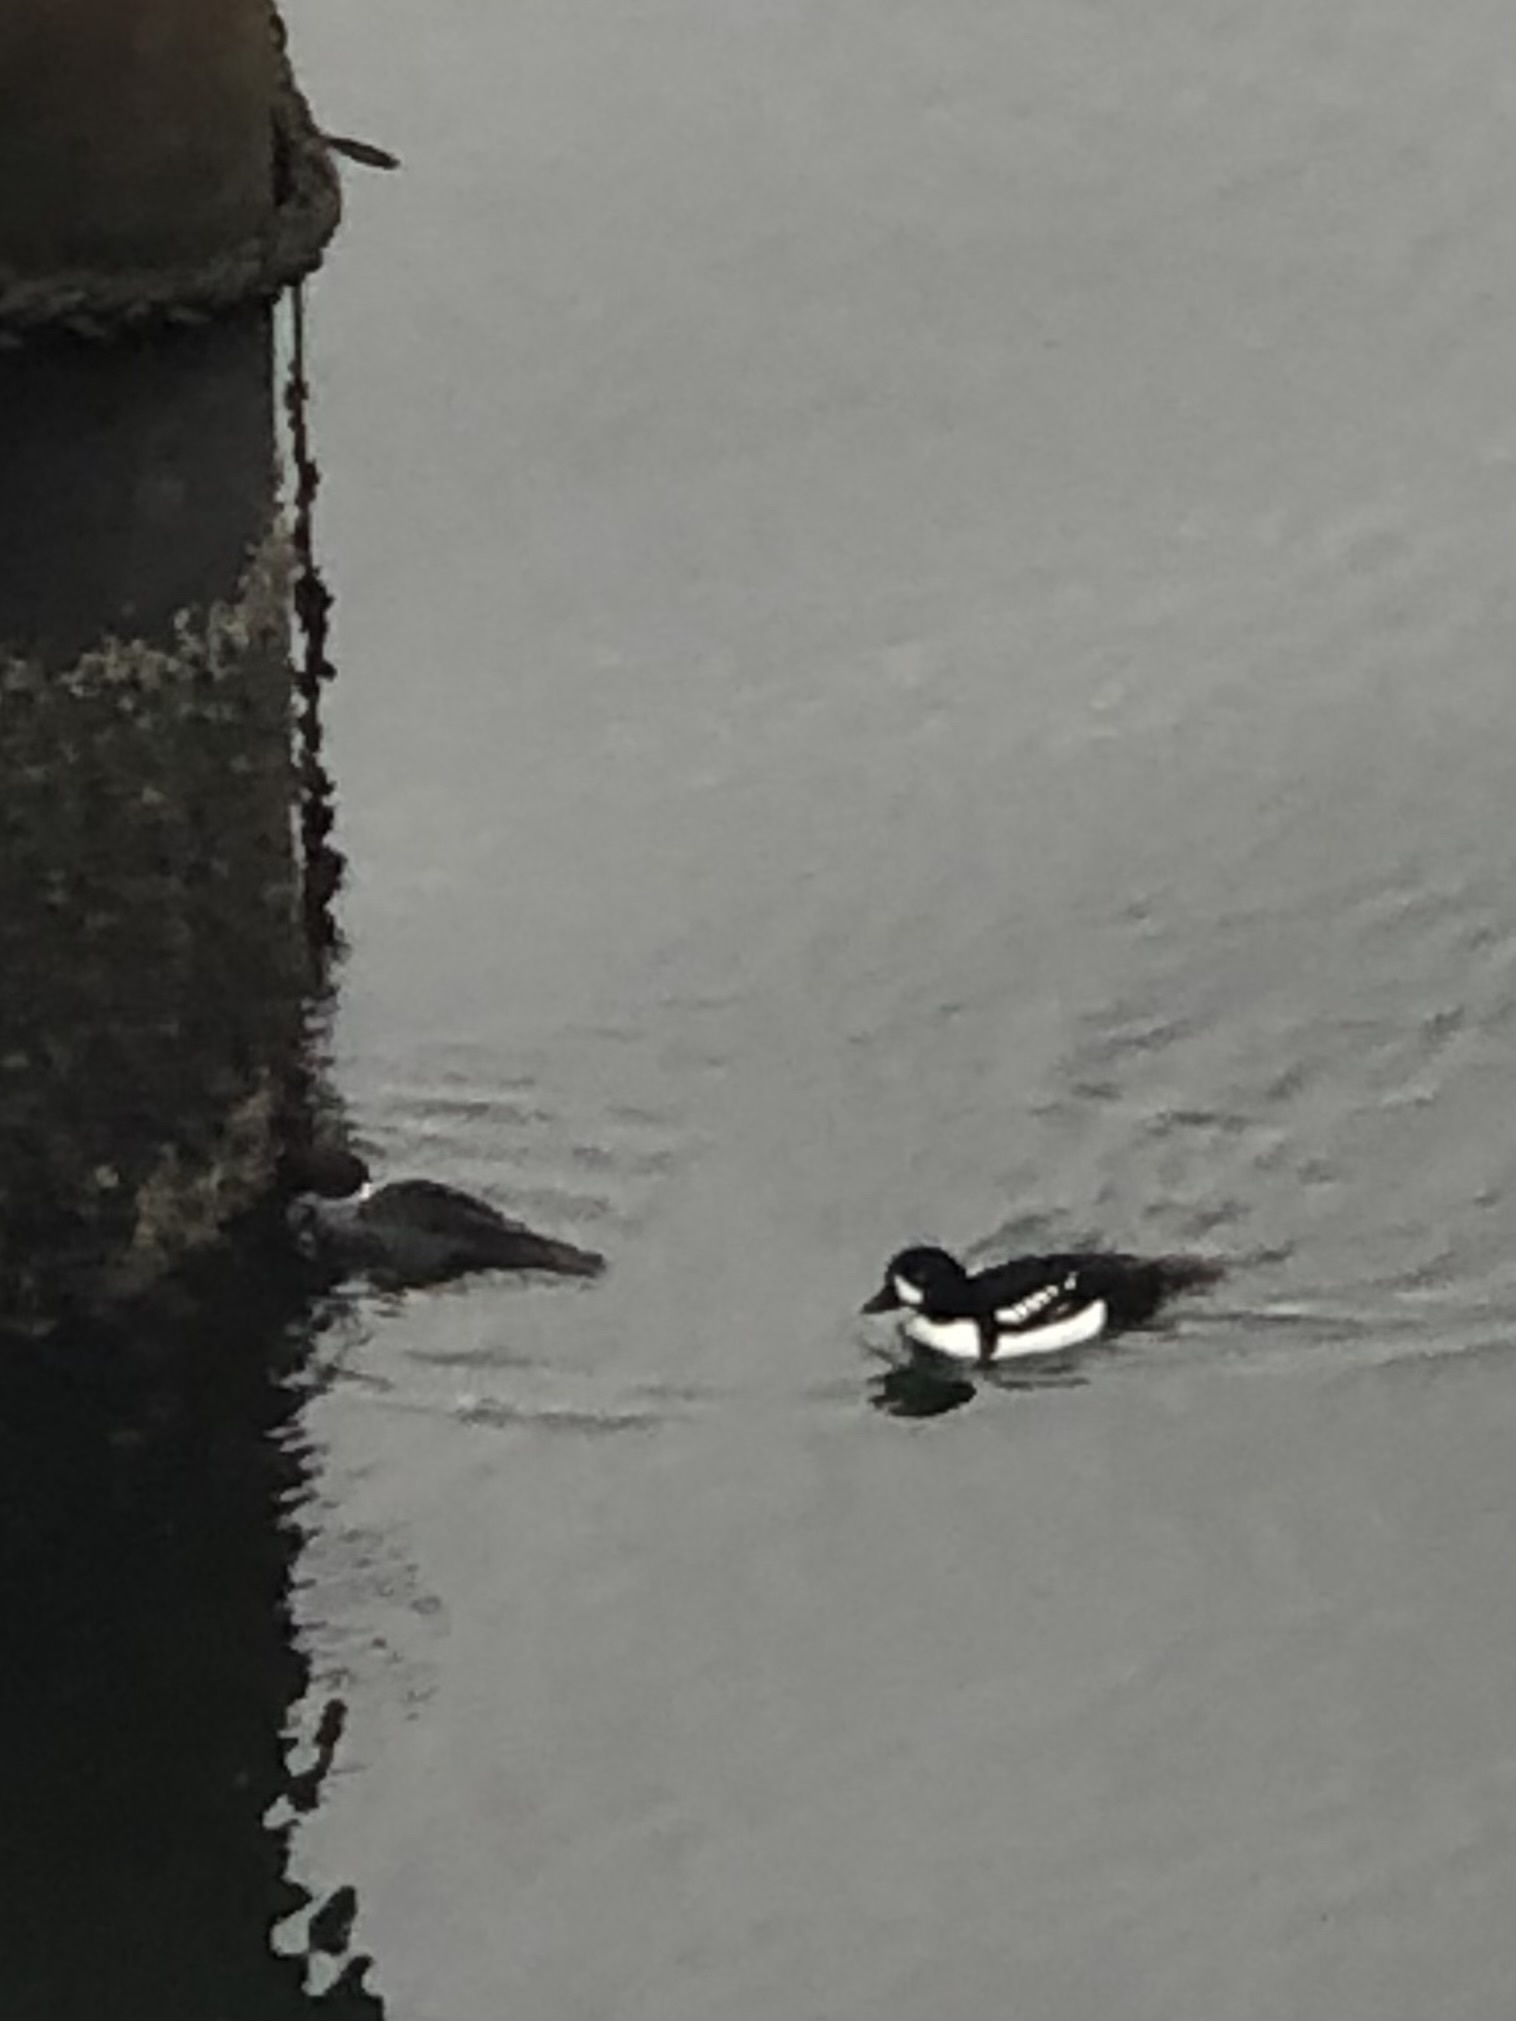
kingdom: Animalia
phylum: Chordata
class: Aves
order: Anseriformes
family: Anatidae
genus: Bucephala
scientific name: Bucephala islandica
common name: Barrow's goldeneye
